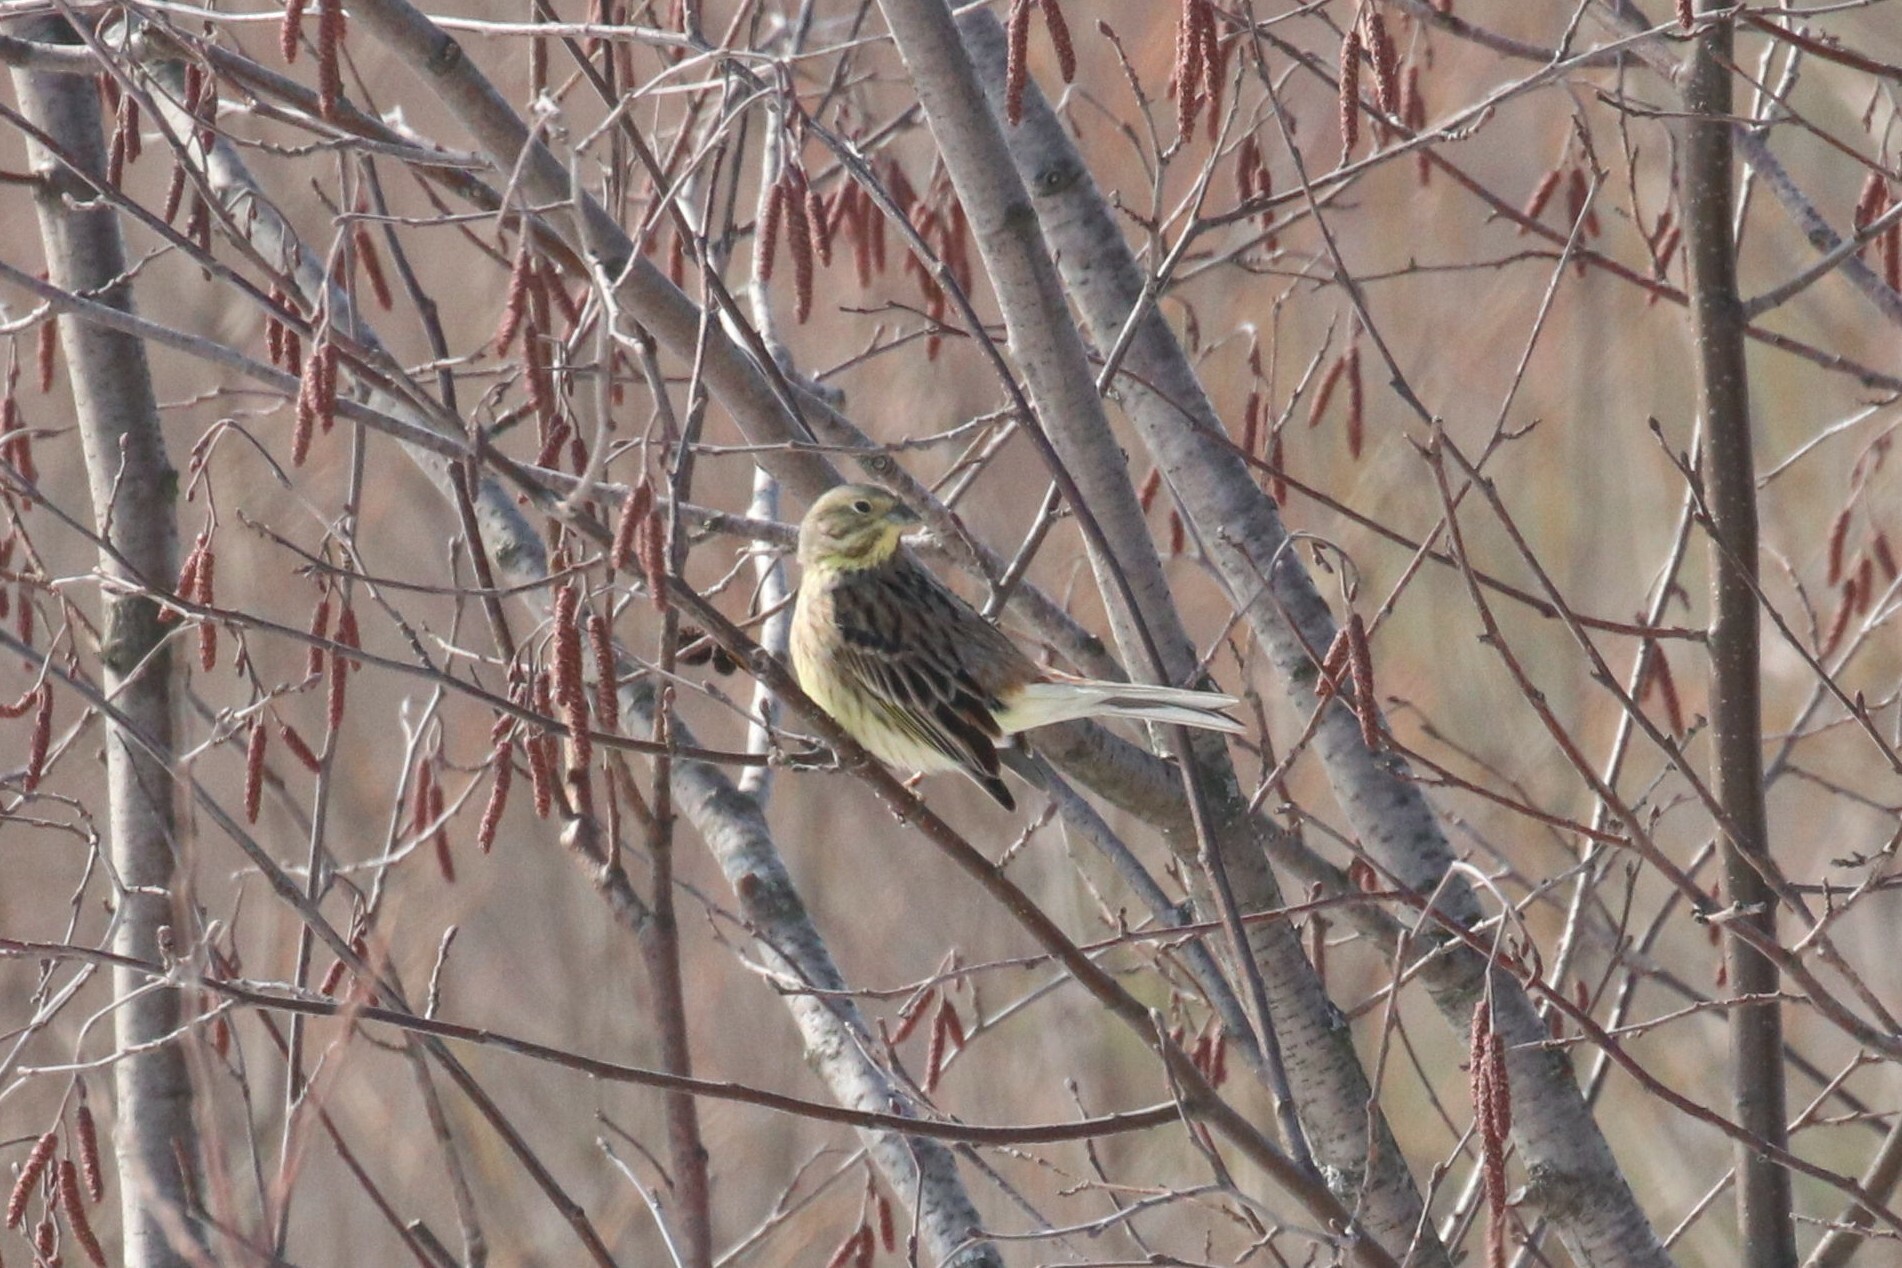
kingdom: Animalia
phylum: Chordata
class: Aves
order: Passeriformes
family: Emberizidae
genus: Emberiza
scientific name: Emberiza citrinella
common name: Yellowhammer
